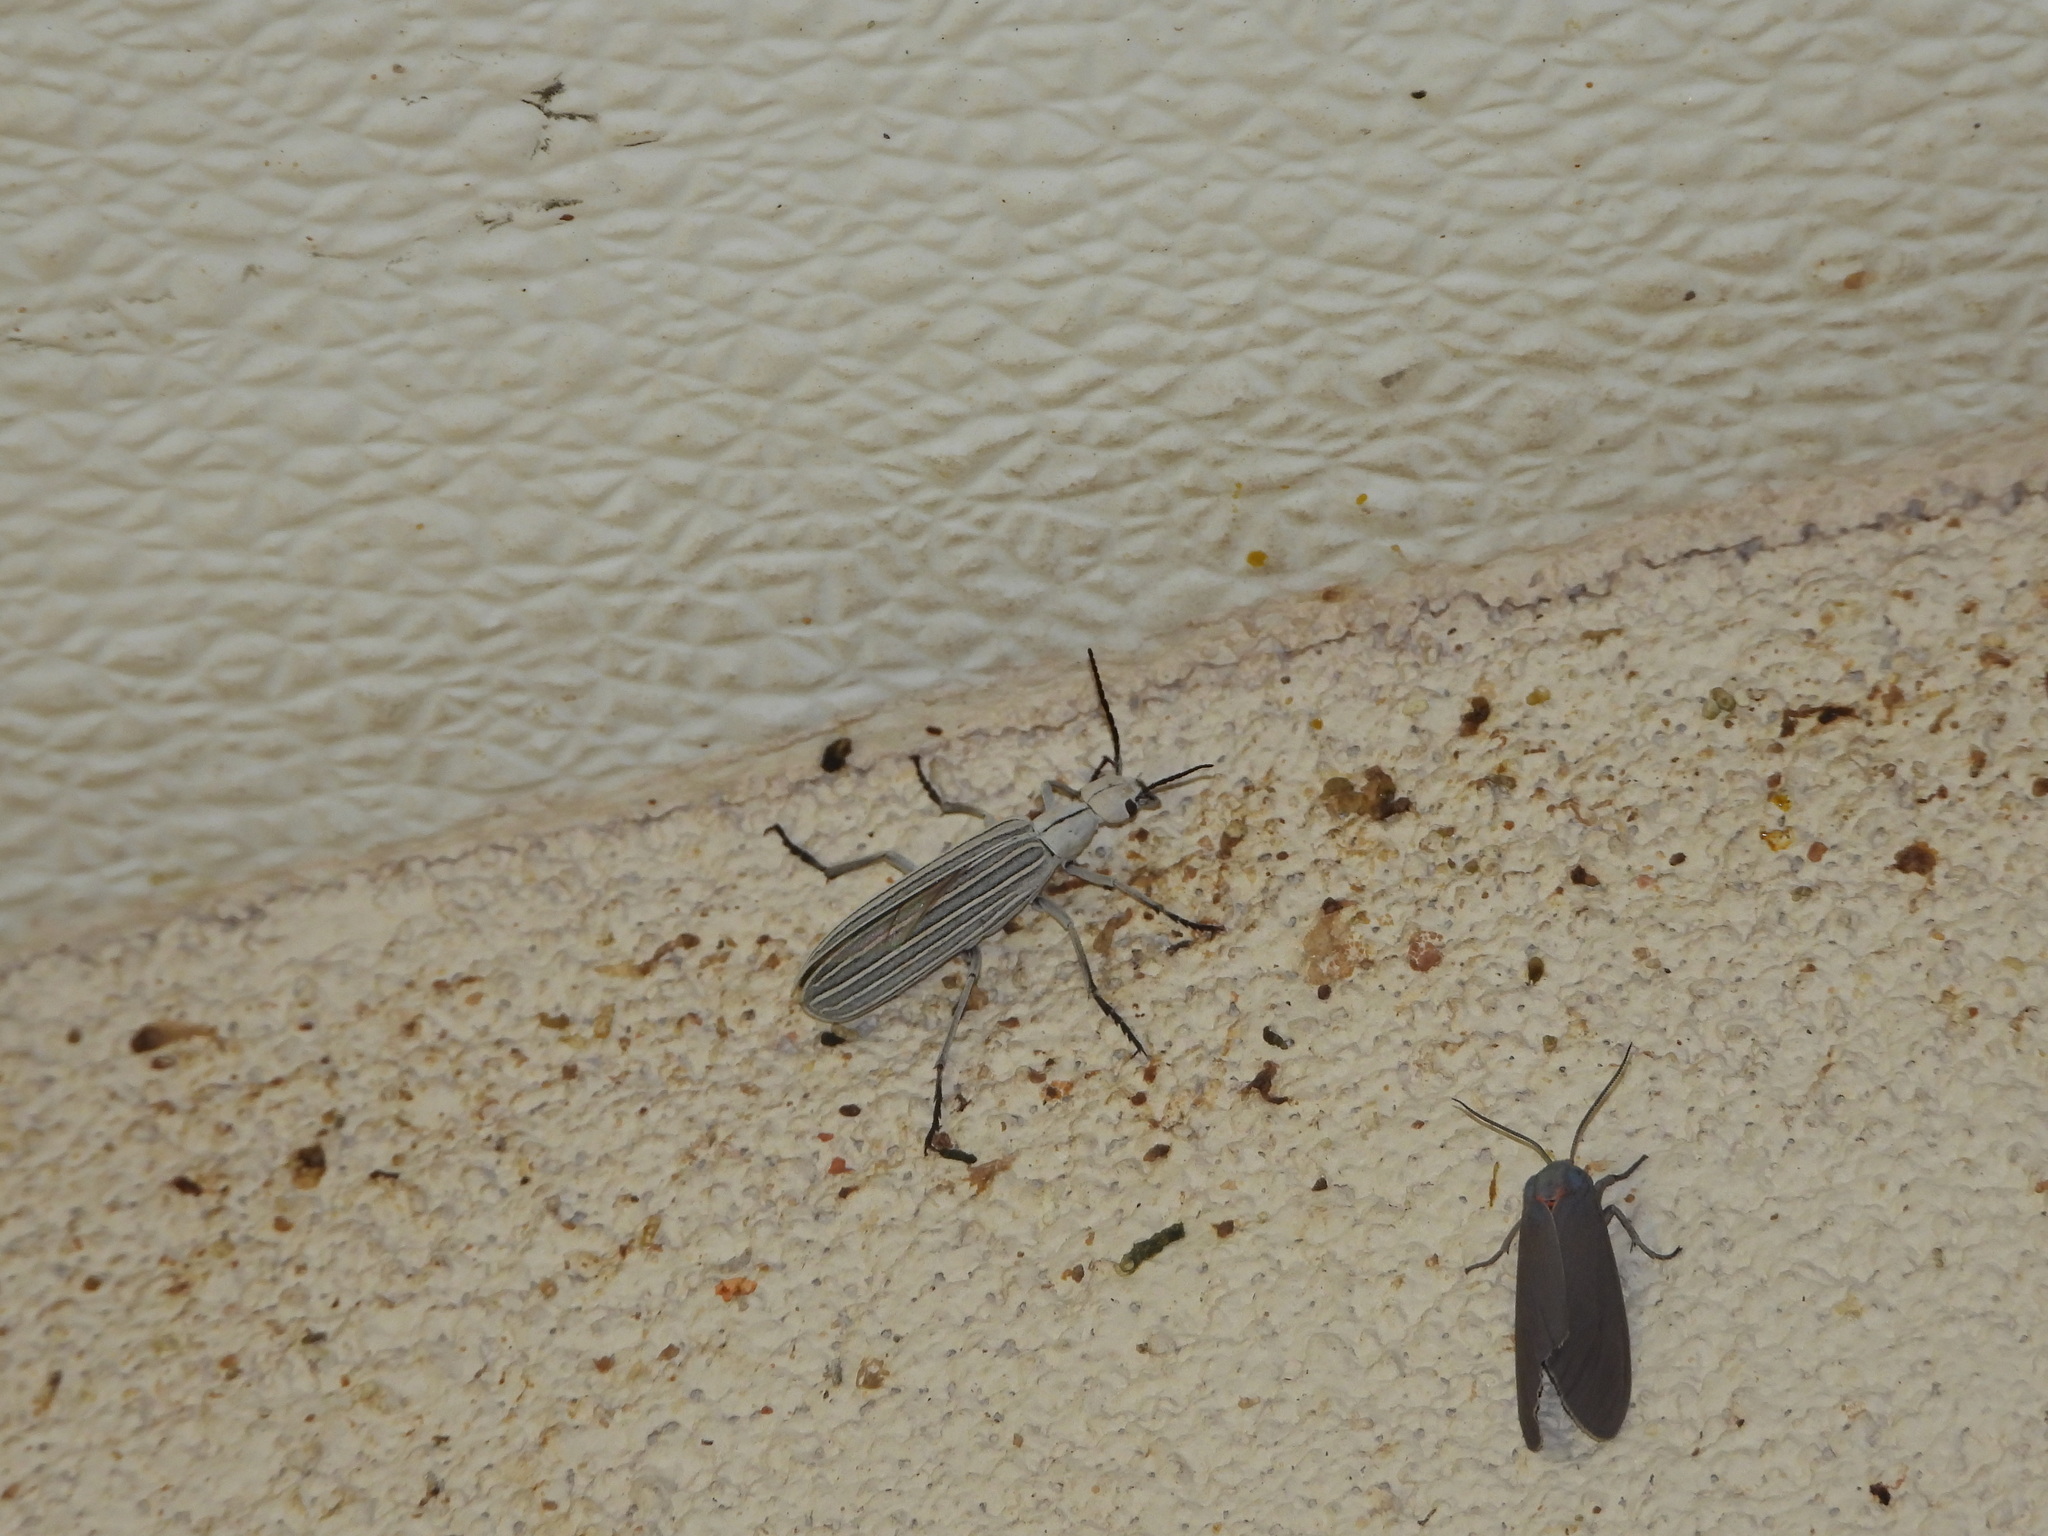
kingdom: Animalia
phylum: Arthropoda
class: Insecta
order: Coleoptera
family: Meloidae
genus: Epicauta
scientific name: Epicauta costata
